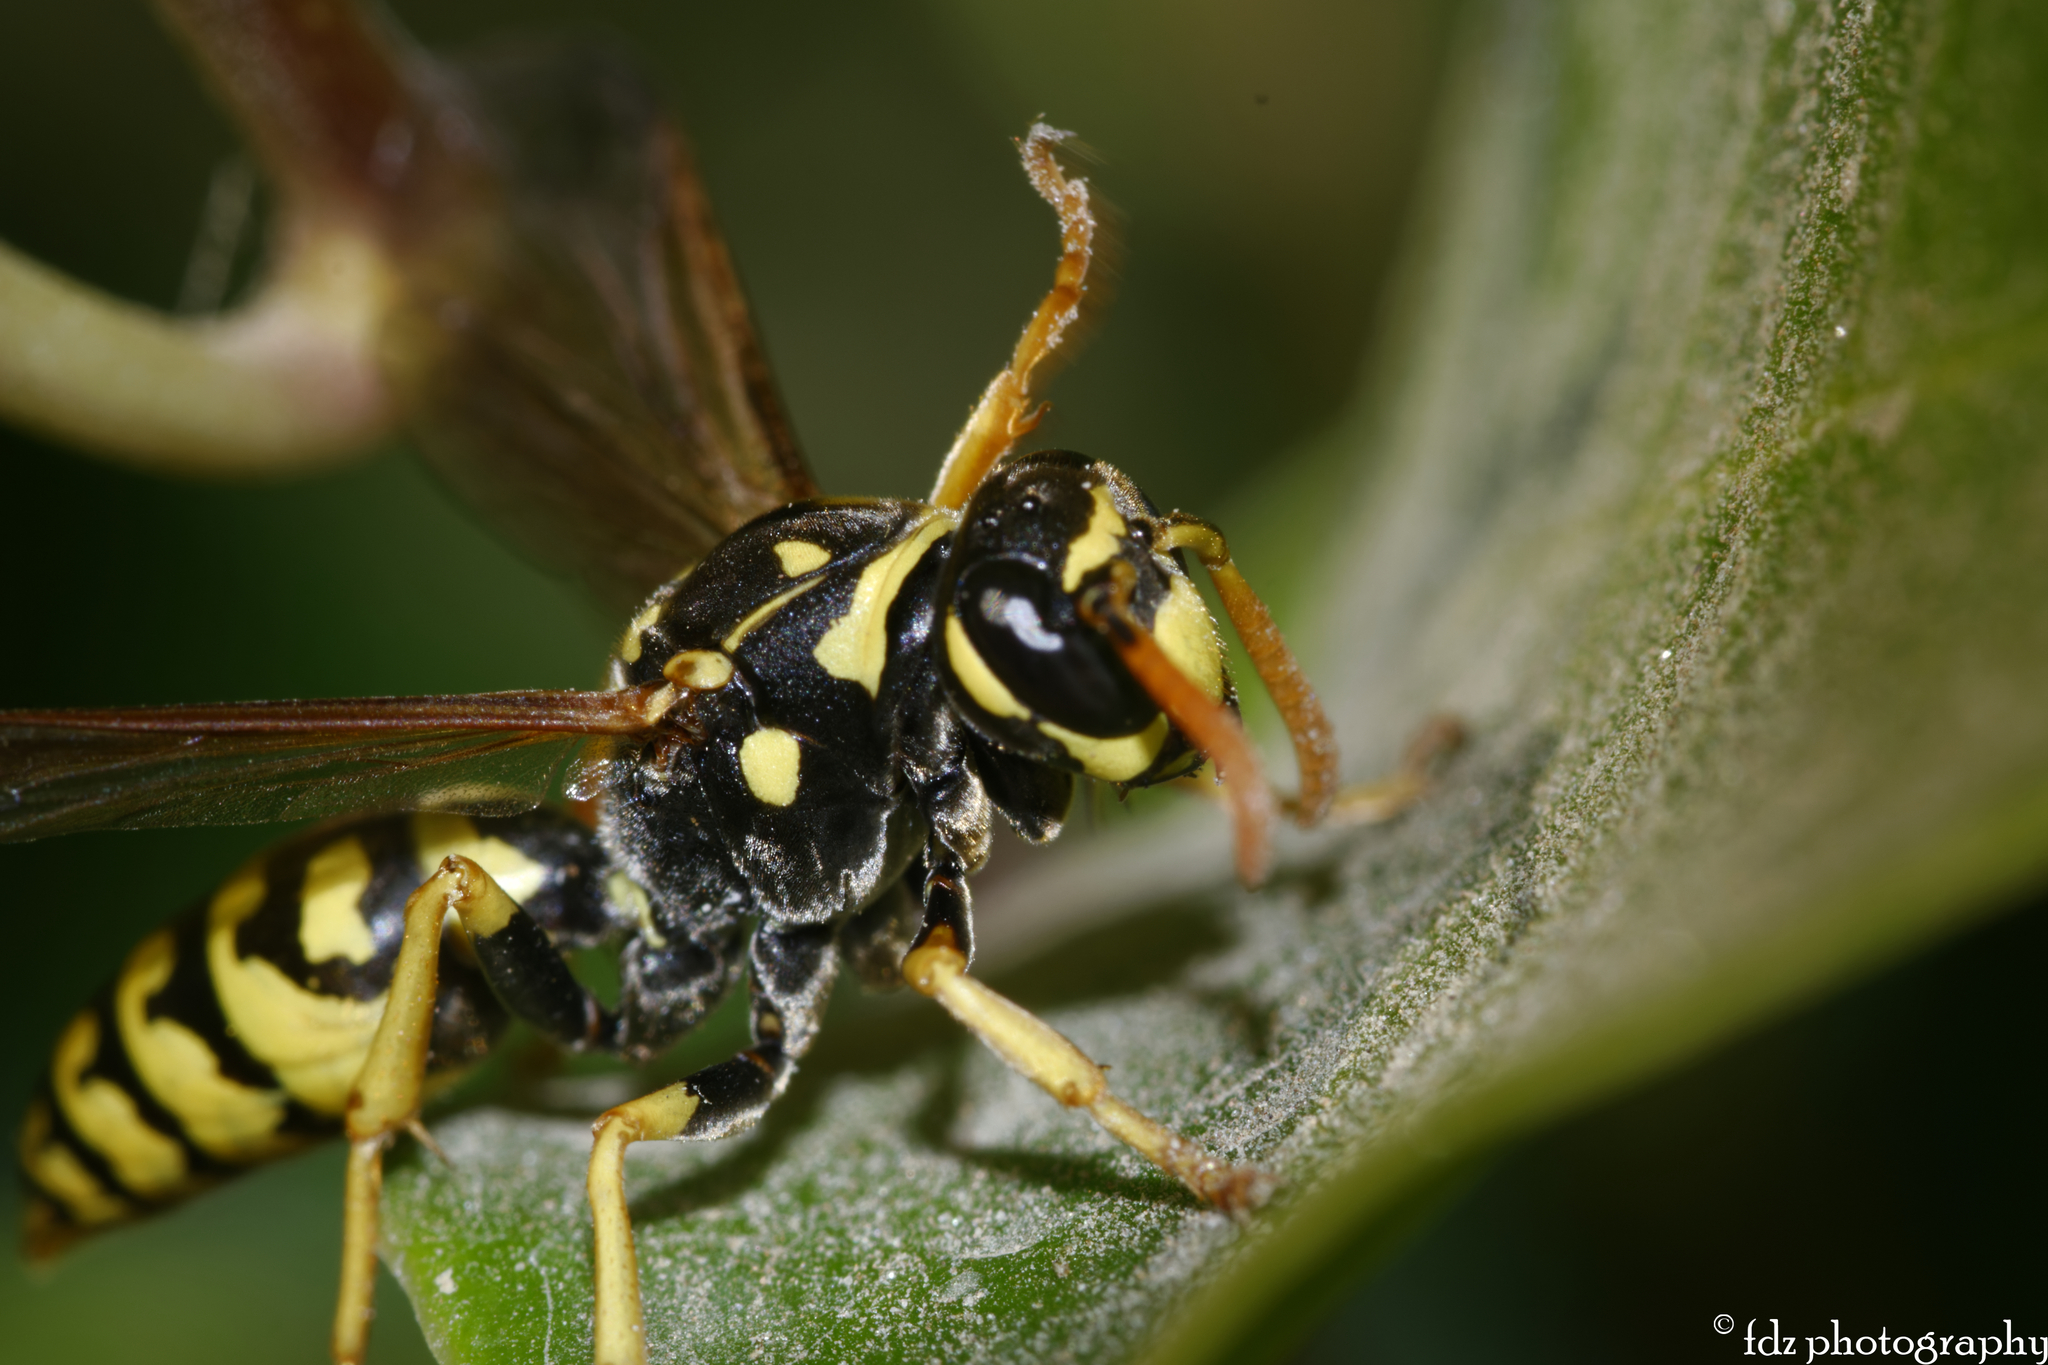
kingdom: Animalia
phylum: Arthropoda
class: Insecta
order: Hymenoptera
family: Eumenidae
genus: Polistes
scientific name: Polistes dominula
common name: Paper wasp
